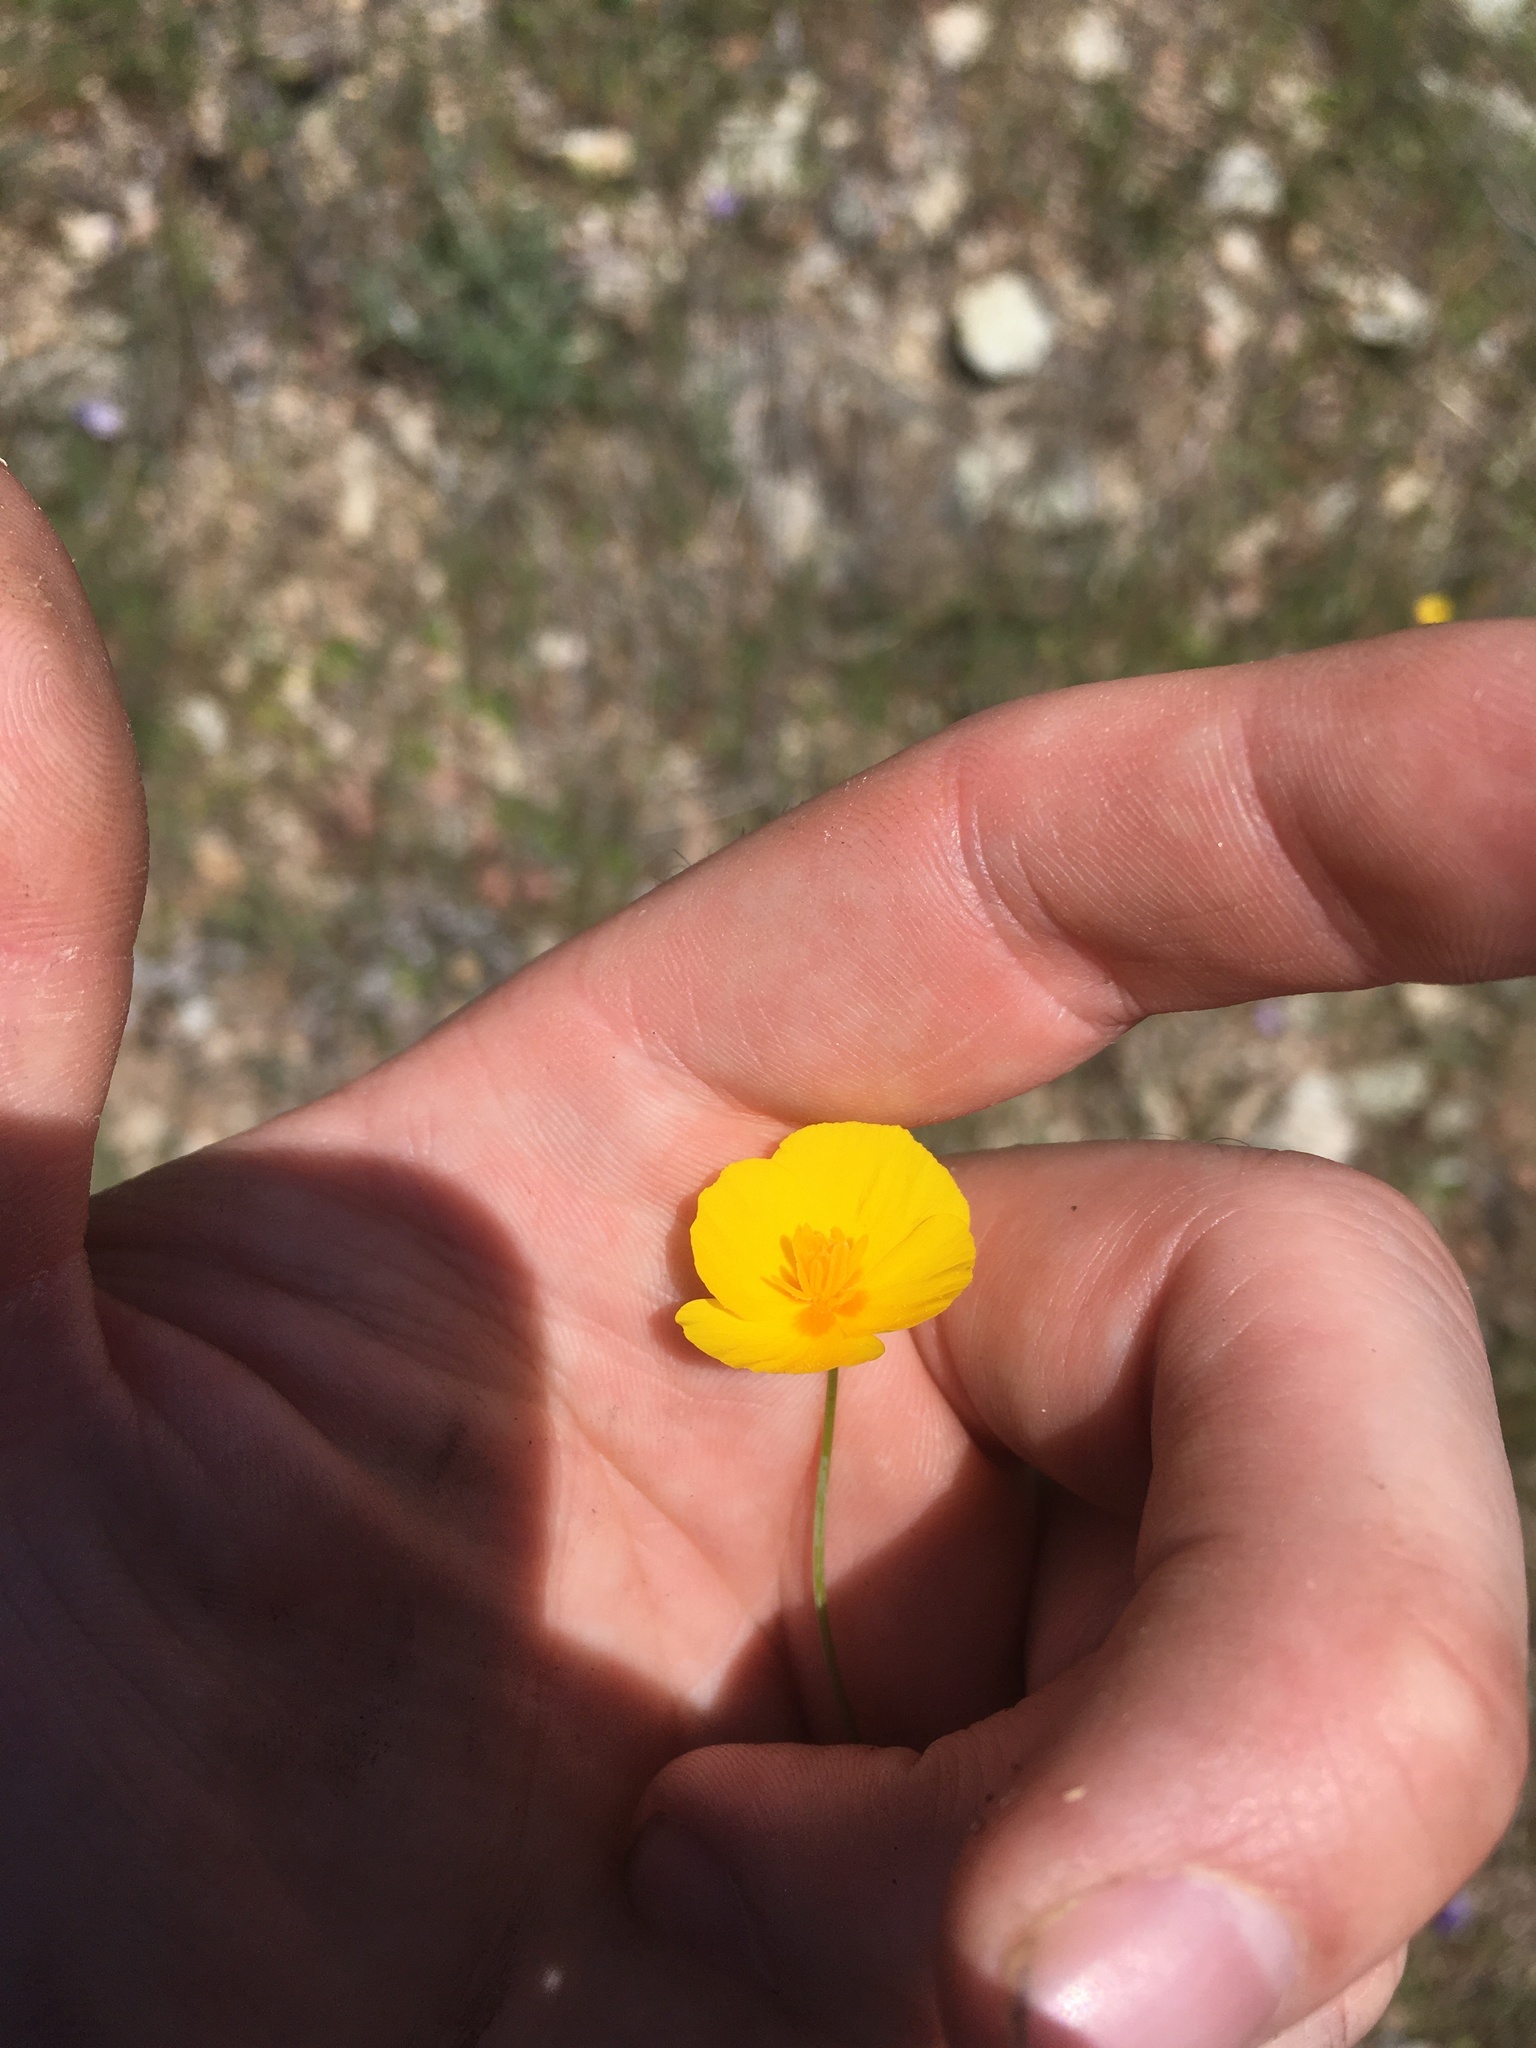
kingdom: Plantae
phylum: Tracheophyta
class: Magnoliopsida
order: Ranunculales
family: Papaveraceae
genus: Eschscholzia
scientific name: Eschscholzia caespitosa
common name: Tufted california-poppy
